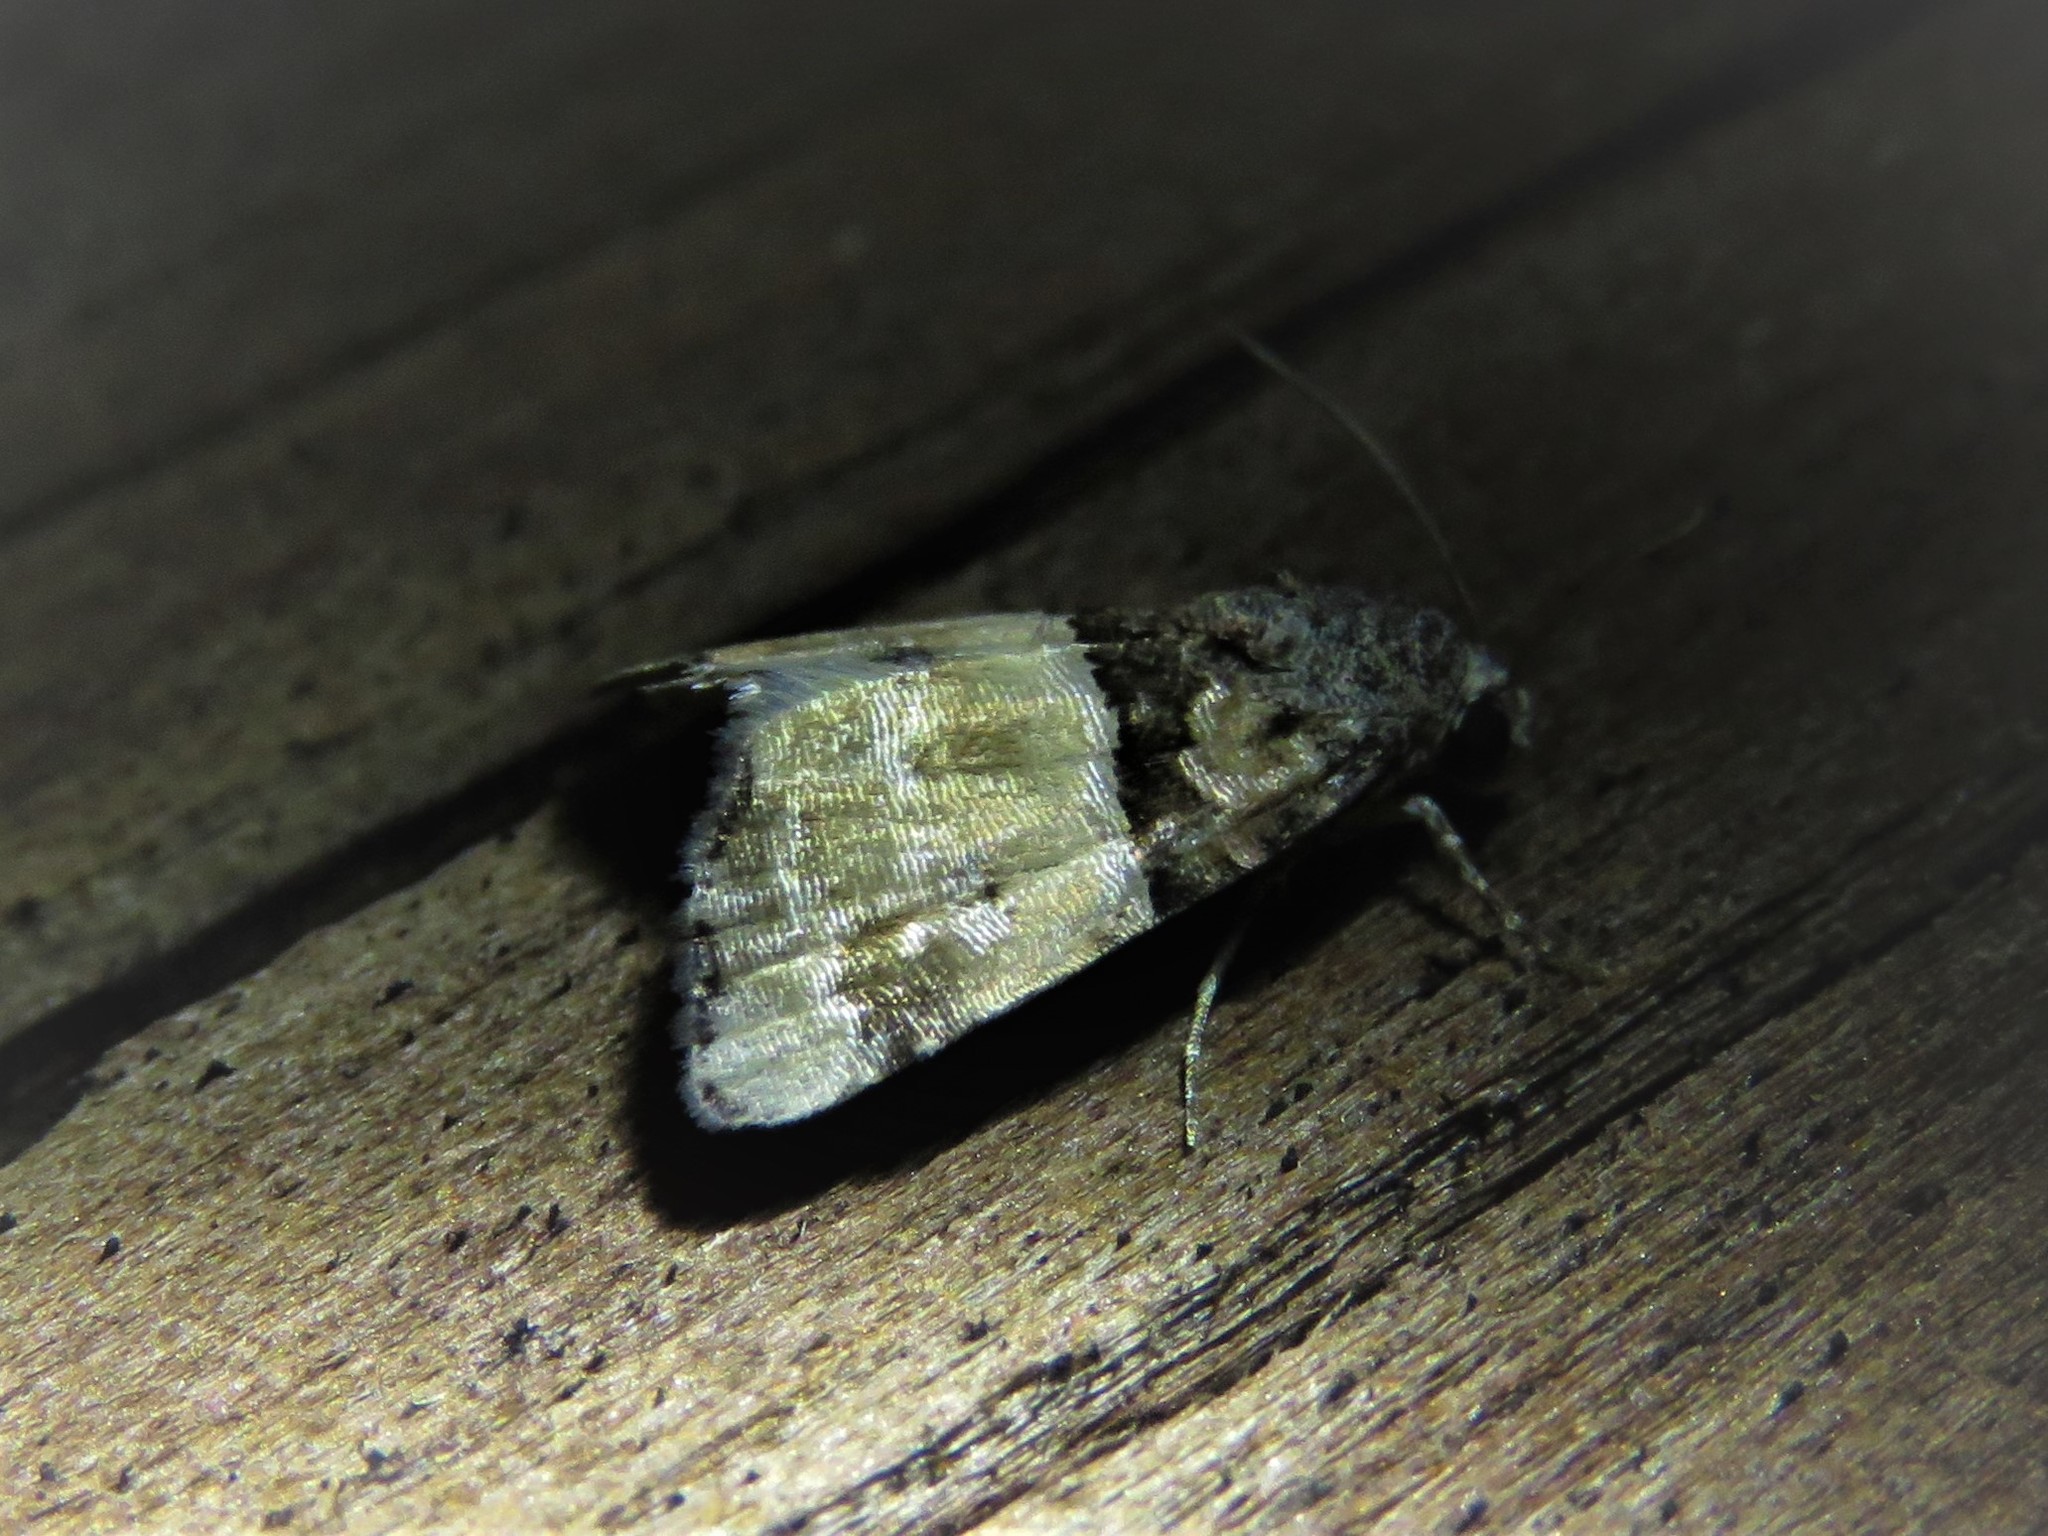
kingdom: Animalia
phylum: Arthropoda
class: Insecta
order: Lepidoptera
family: Noctuidae
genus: Cobubatha
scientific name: Cobubatha dividua
